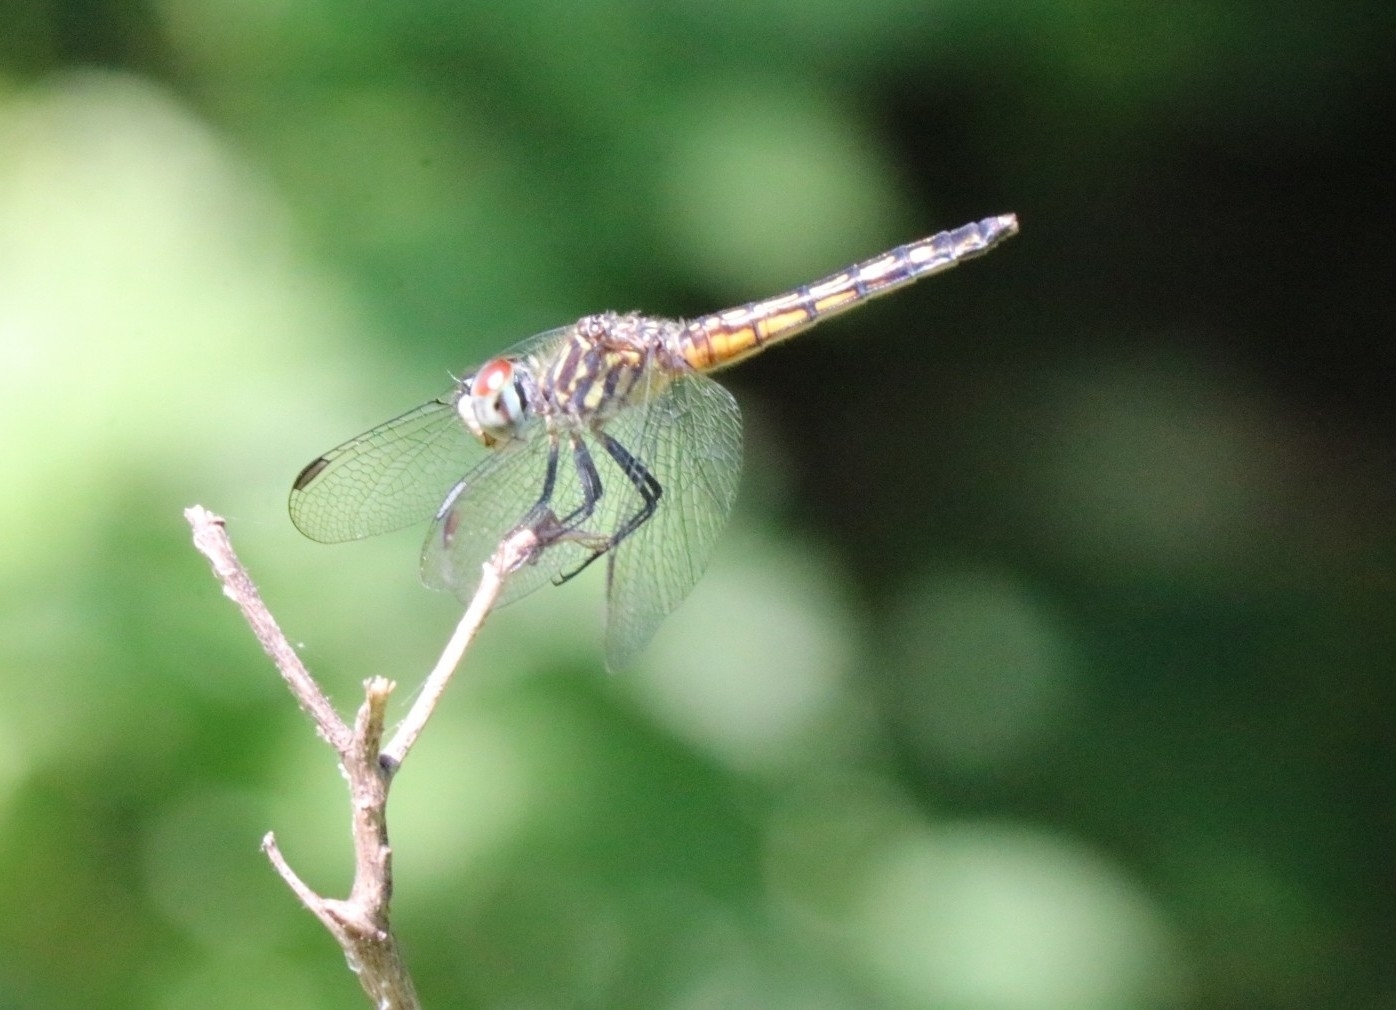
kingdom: Animalia
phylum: Arthropoda
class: Insecta
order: Odonata
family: Libellulidae
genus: Pachydiplax
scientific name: Pachydiplax longipennis
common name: Blue dasher
